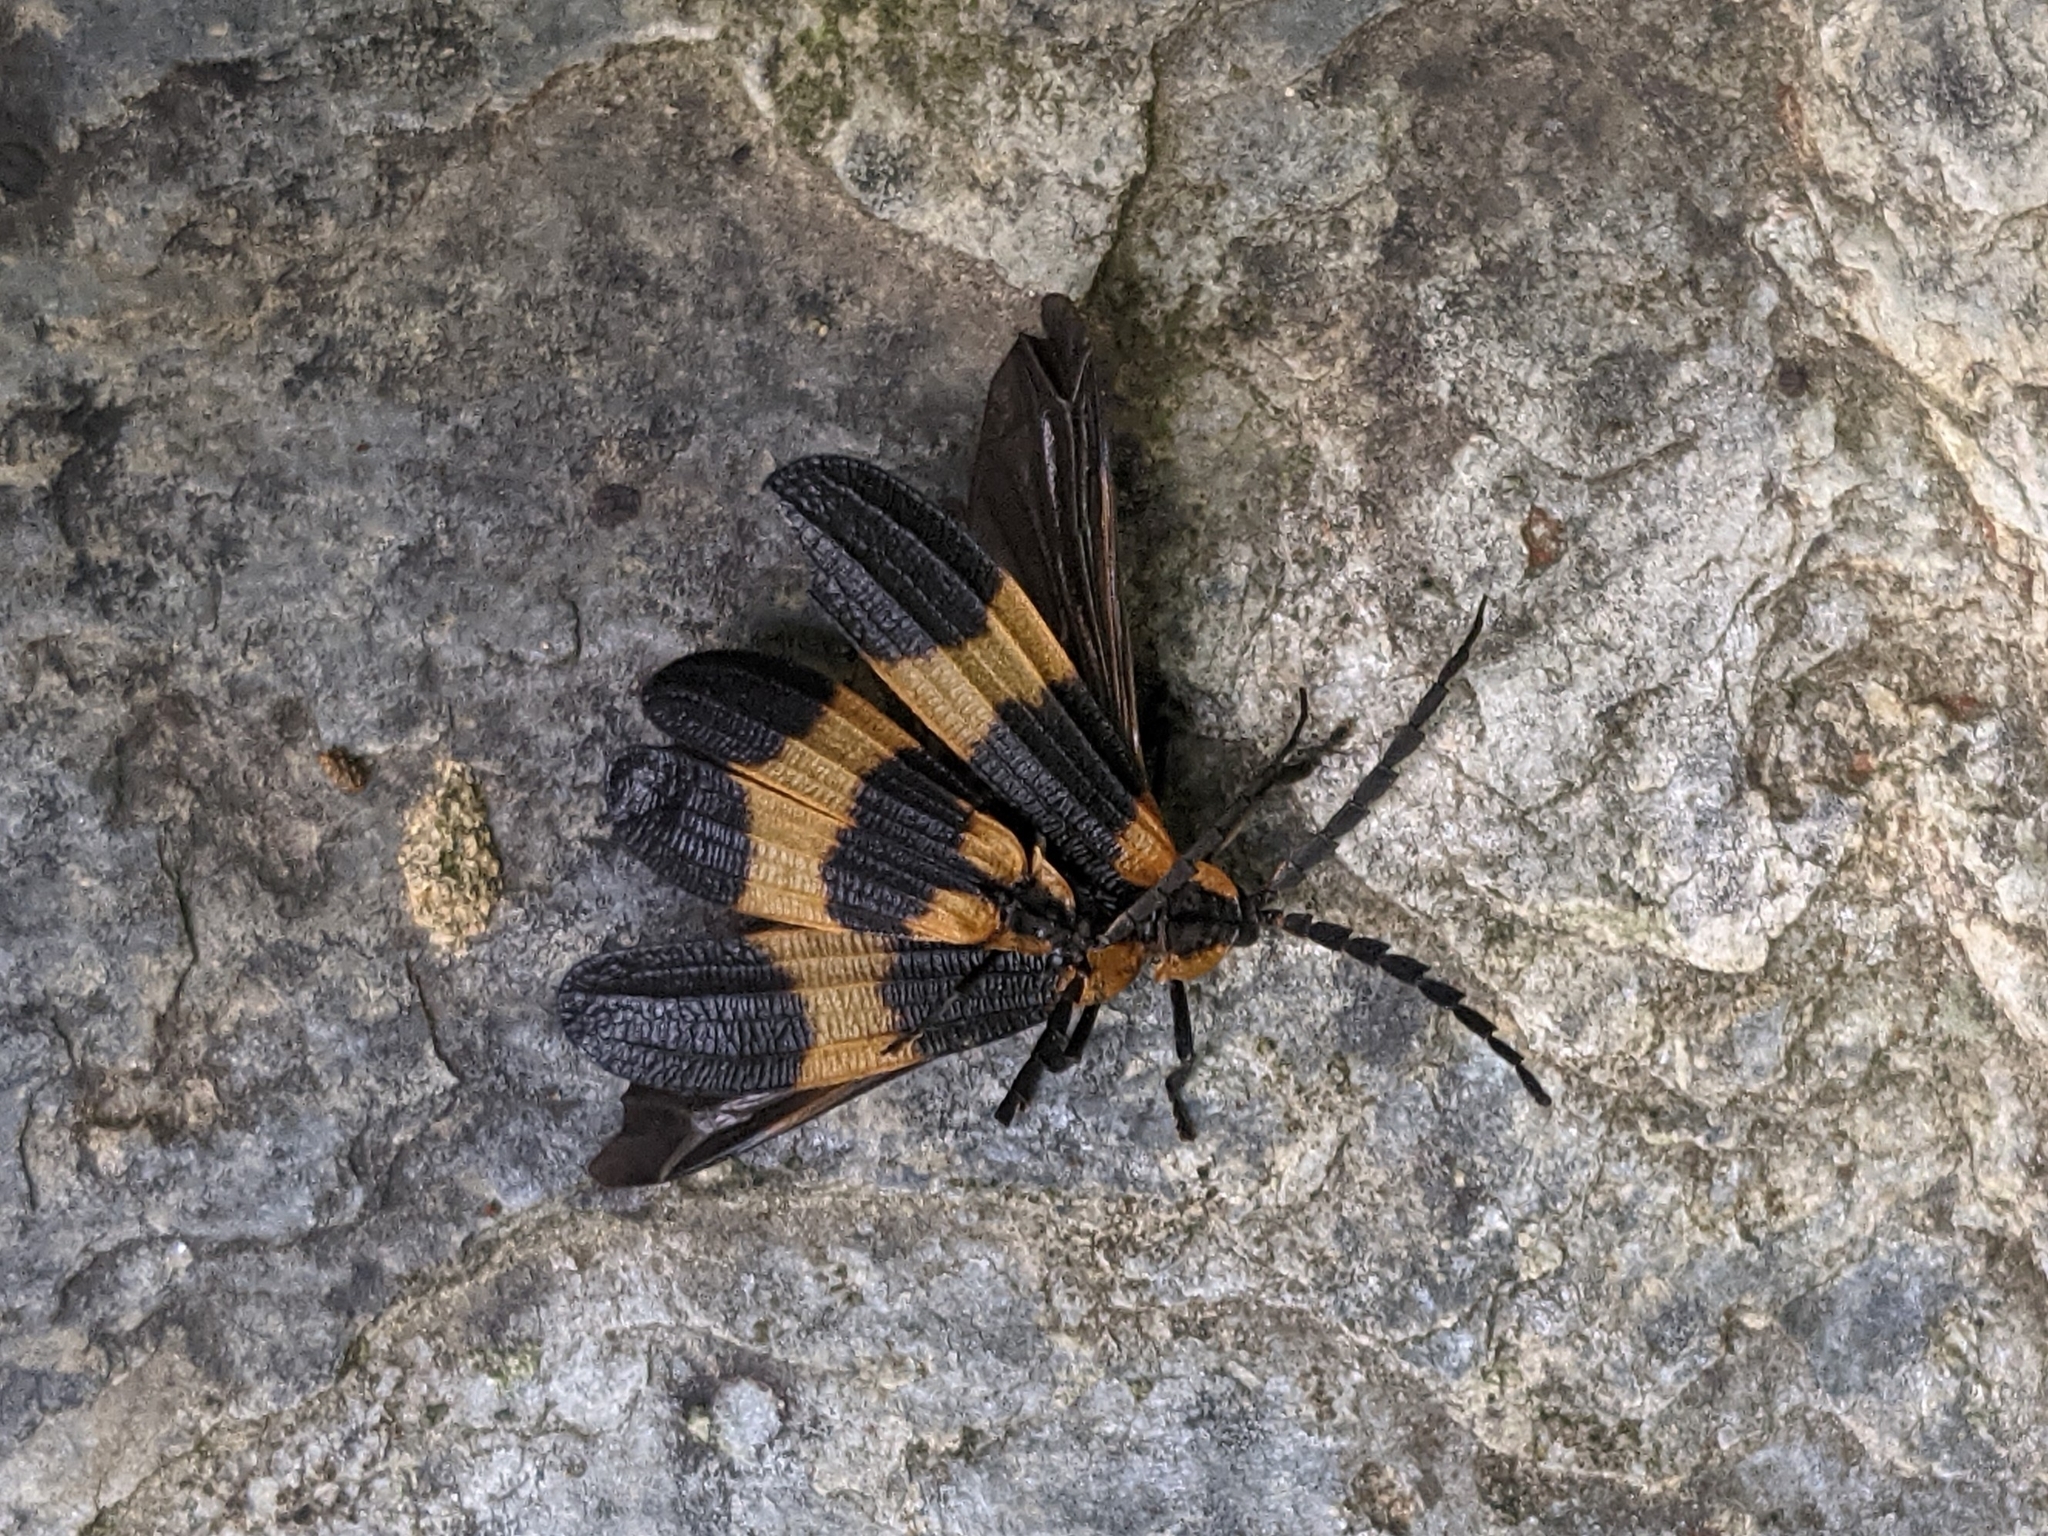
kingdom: Animalia
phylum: Arthropoda
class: Insecta
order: Coleoptera
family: Lycidae
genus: Calopteron
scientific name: Calopteron reticulatum
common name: Banded net-winged beetle
